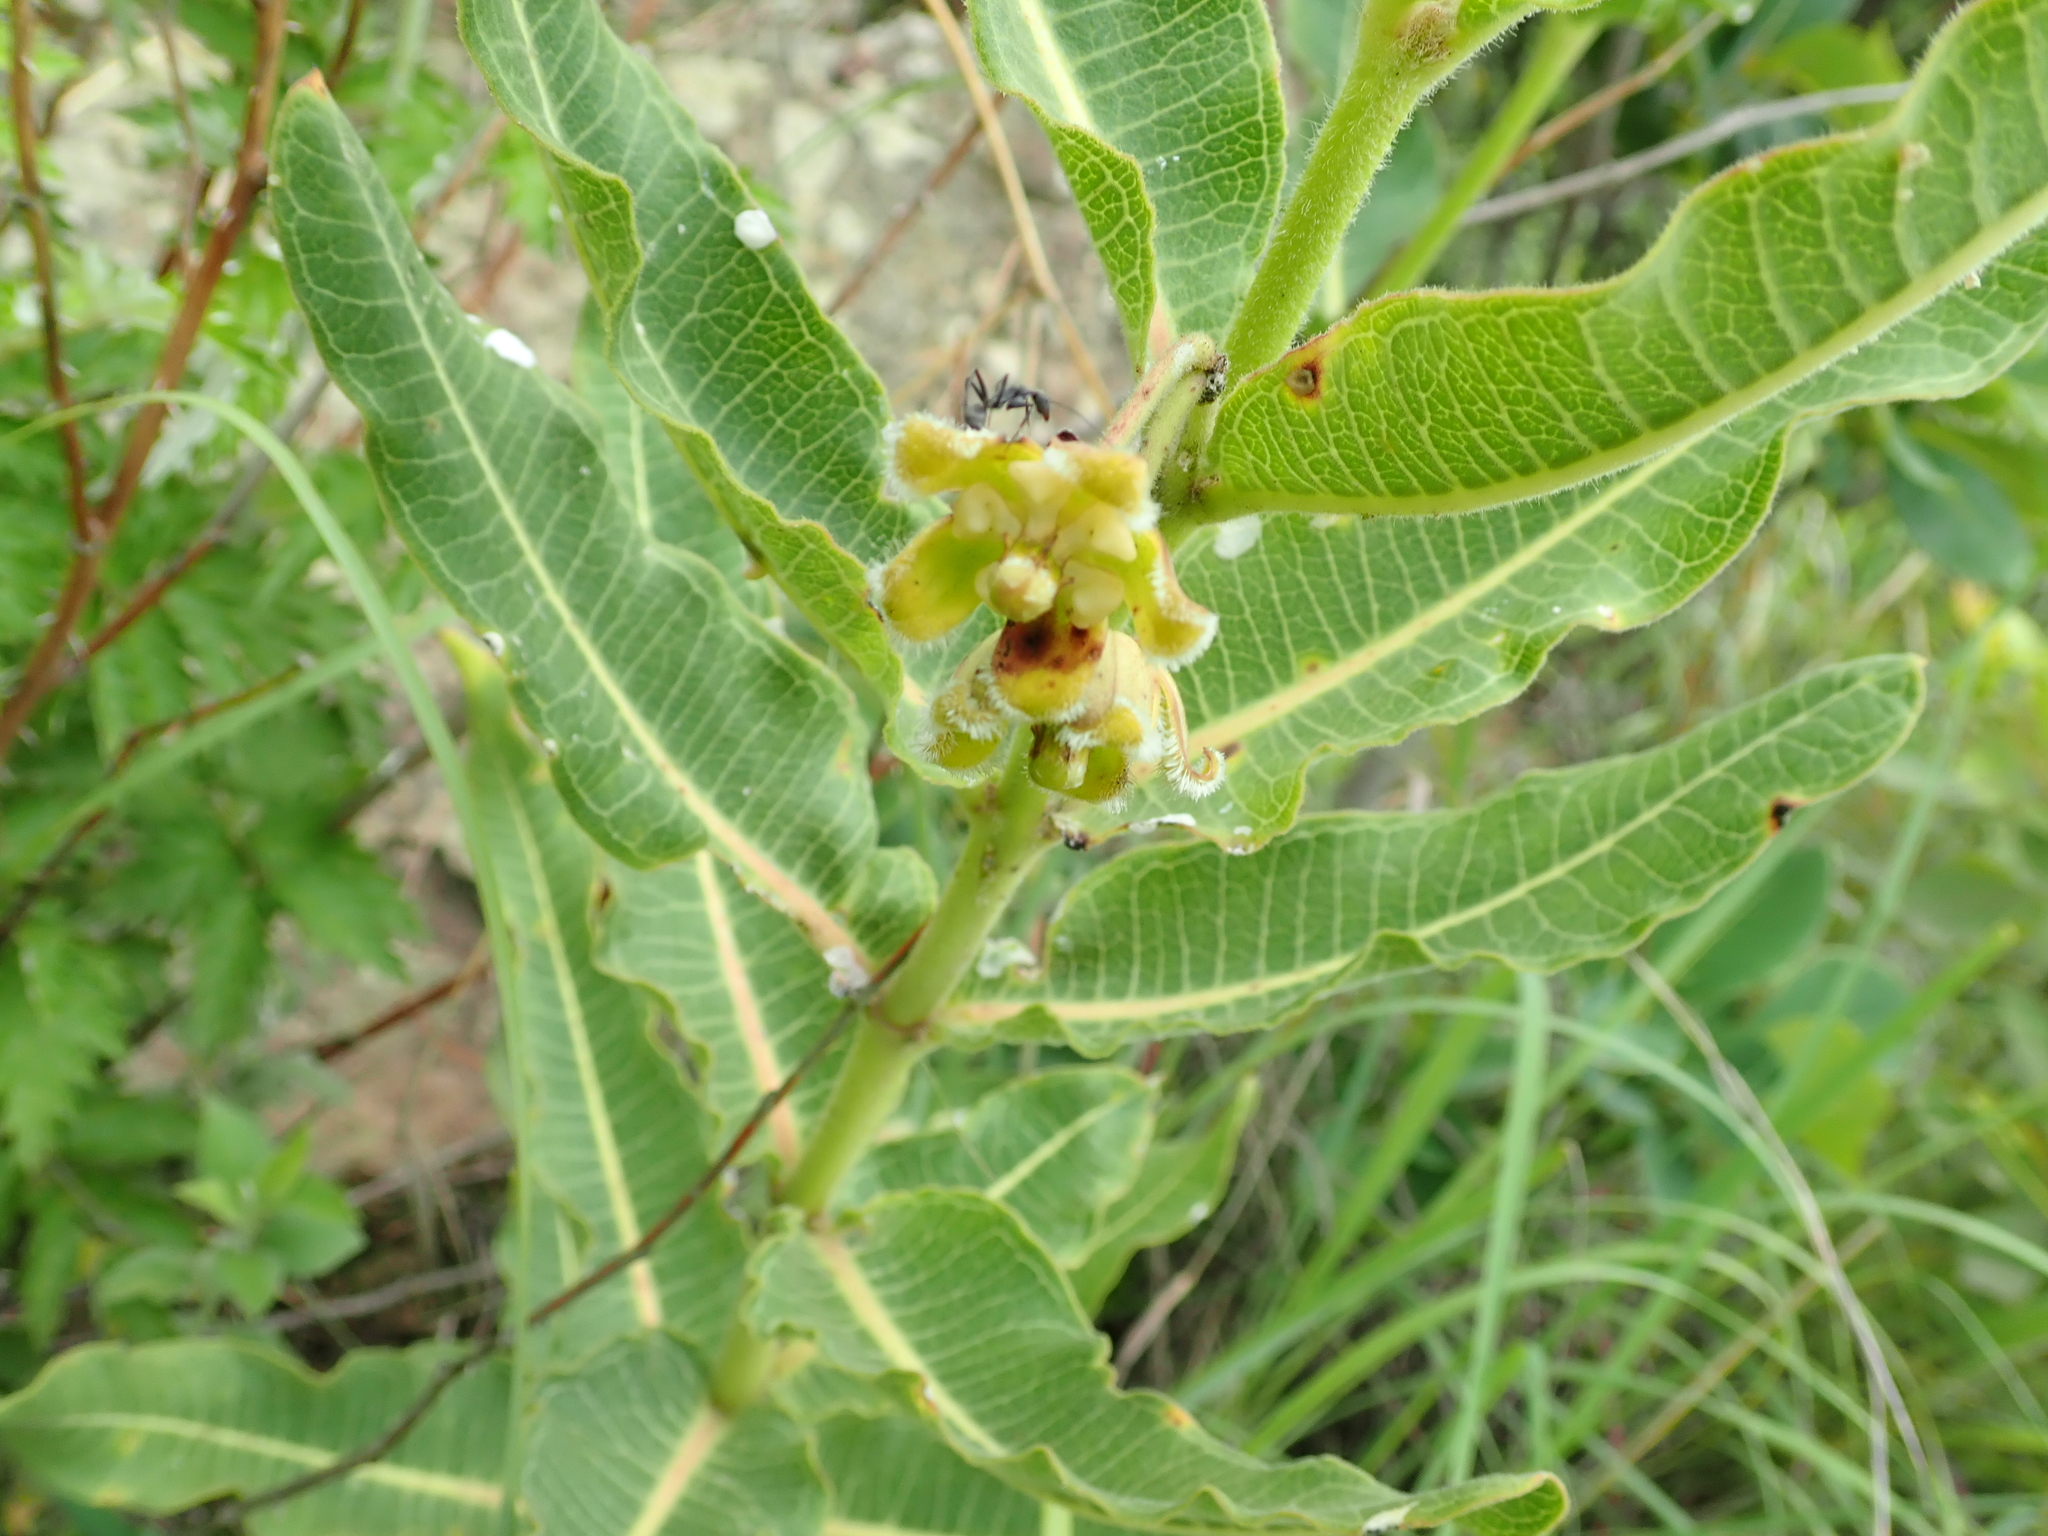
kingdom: Plantae
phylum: Tracheophyta
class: Magnoliopsida
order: Gentianales
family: Apocynaceae
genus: Xysmalobium
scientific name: Xysmalobium undulatum
